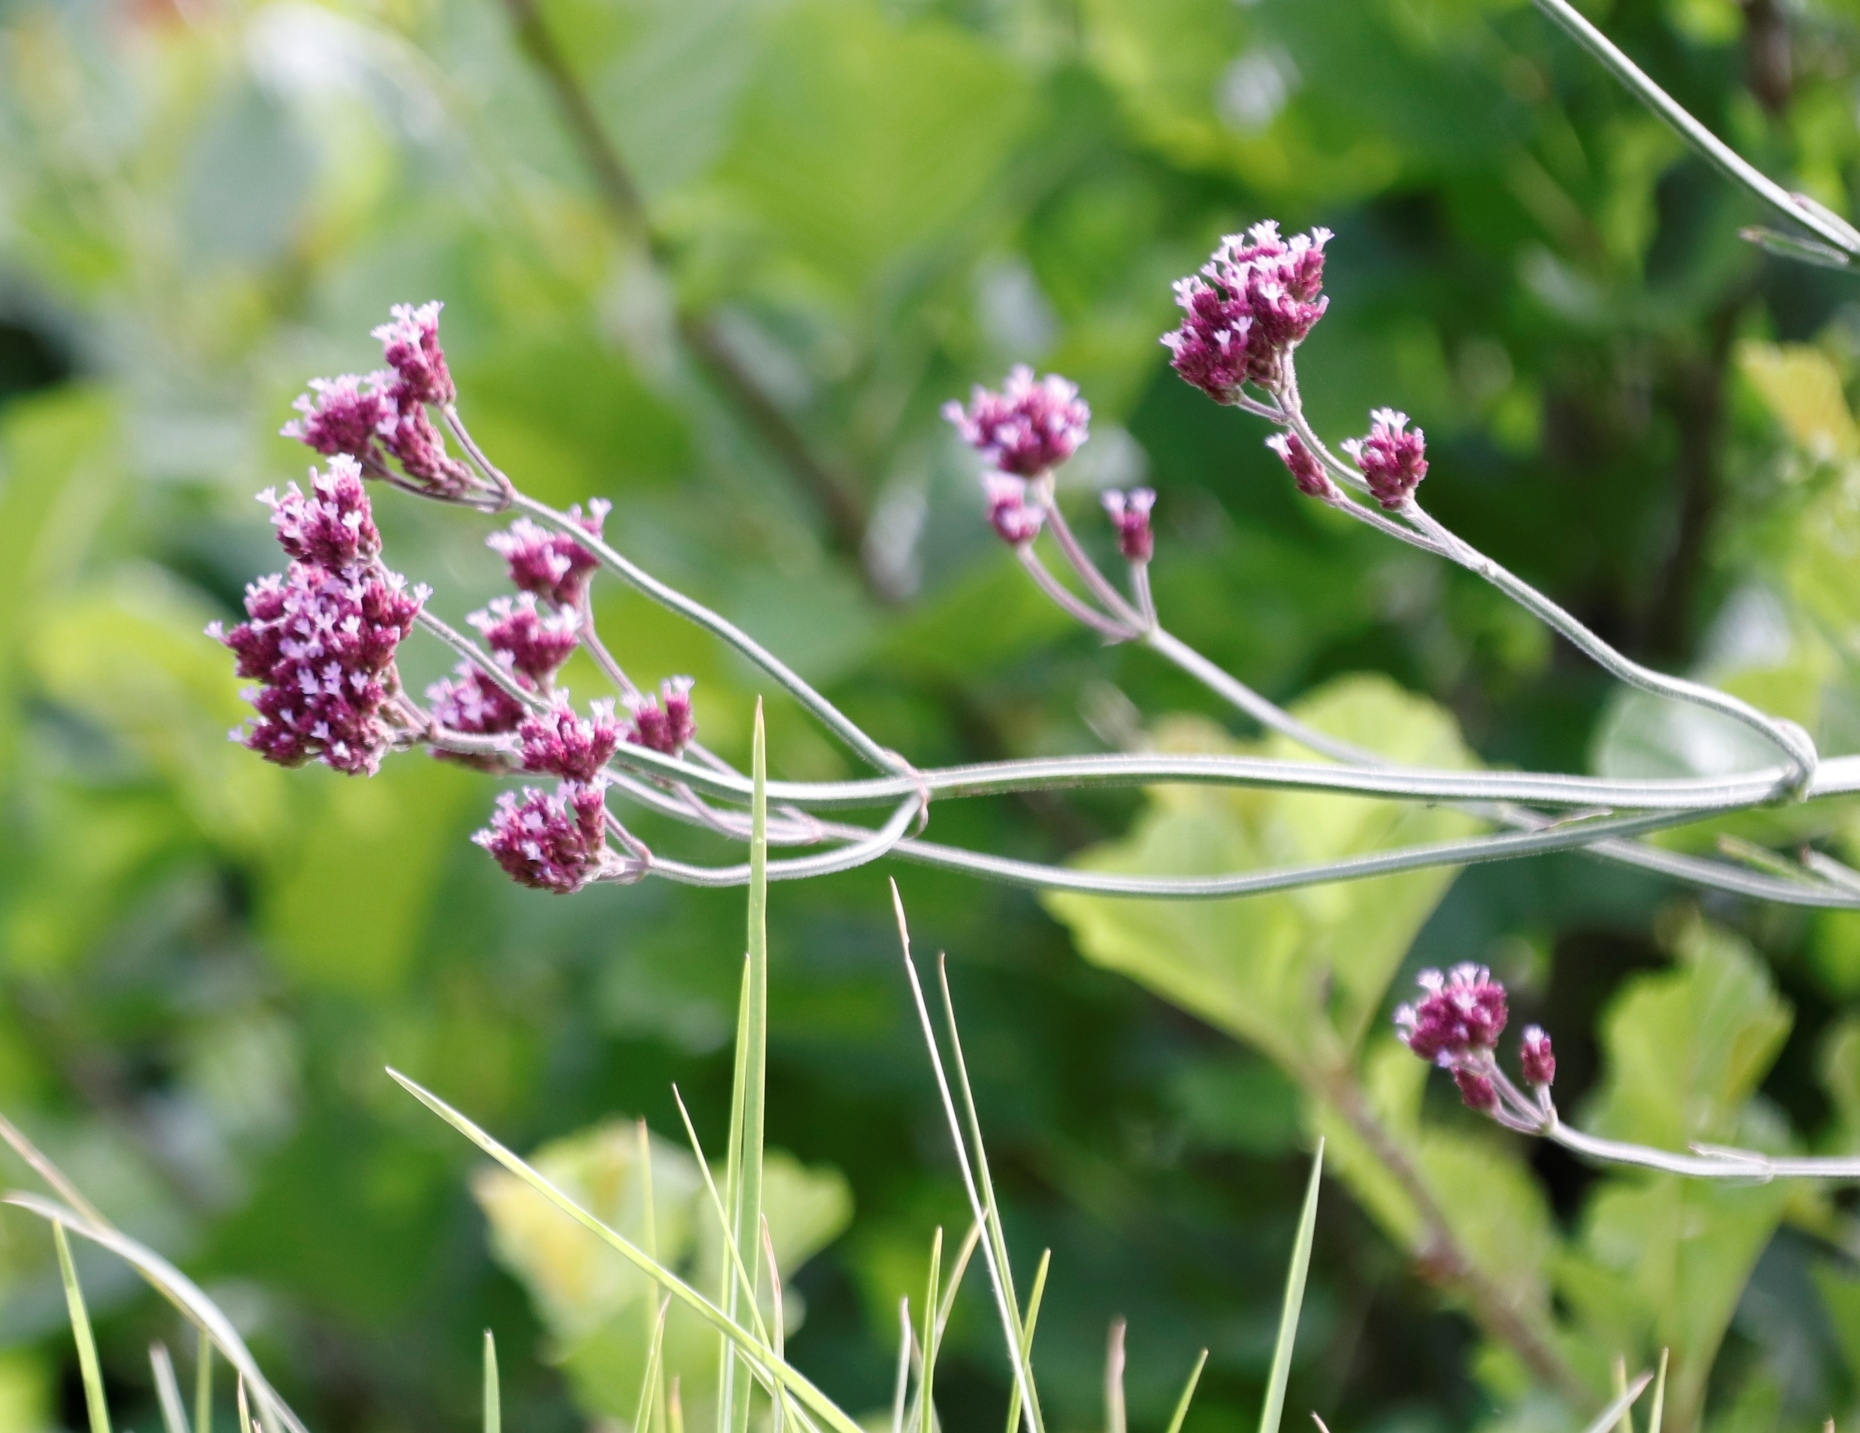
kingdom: Plantae
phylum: Tracheophyta
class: Magnoliopsida
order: Lamiales
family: Verbenaceae
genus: Verbena
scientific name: Verbena bonariensis
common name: Purpletop vervain
